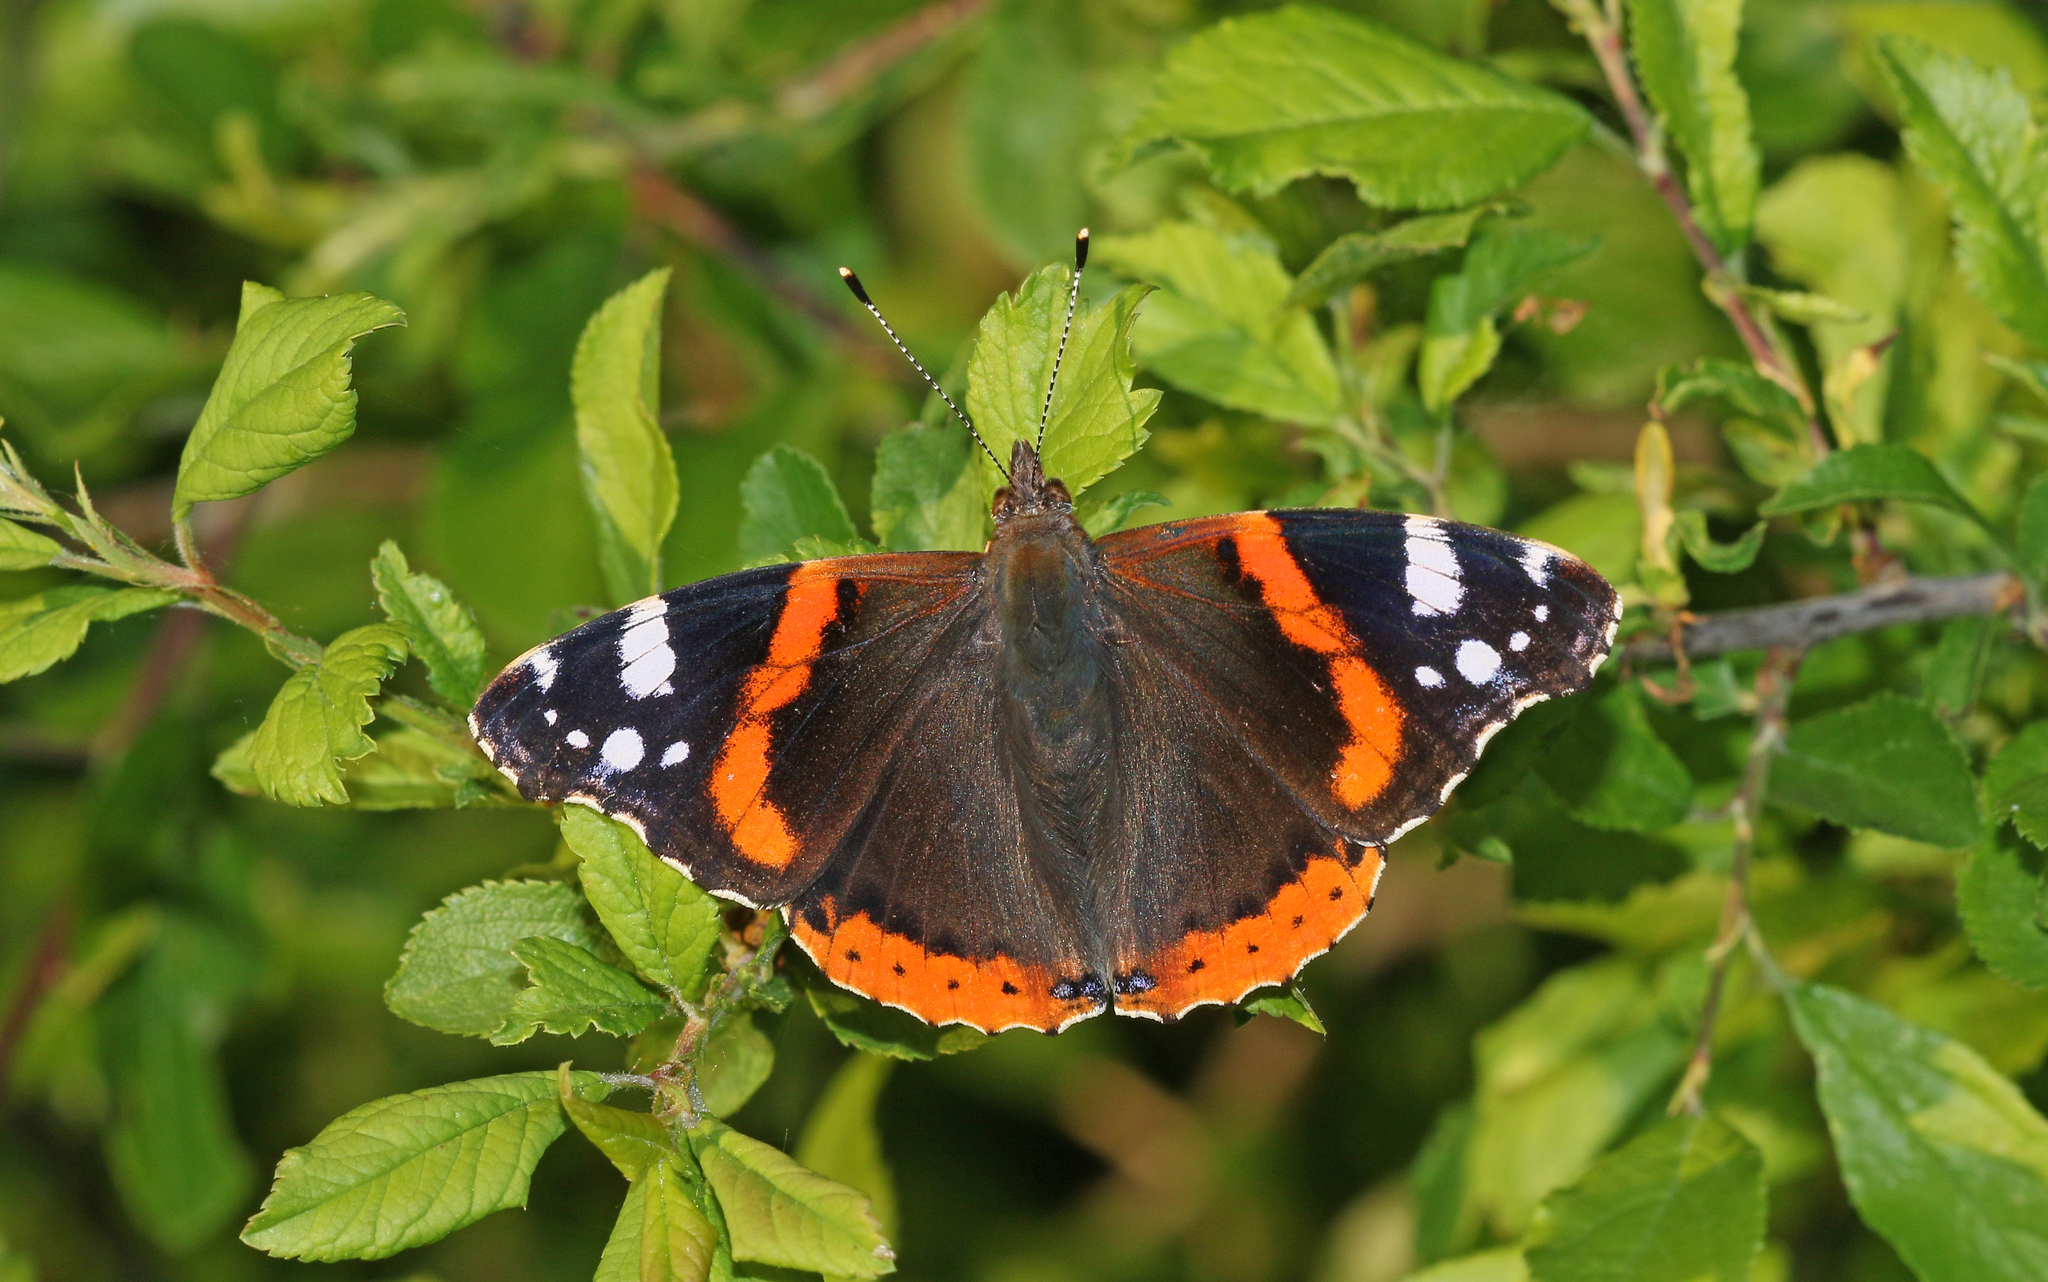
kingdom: Animalia
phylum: Arthropoda
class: Insecta
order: Lepidoptera
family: Nymphalidae
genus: Vanessa
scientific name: Vanessa atalanta
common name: Red admiral
